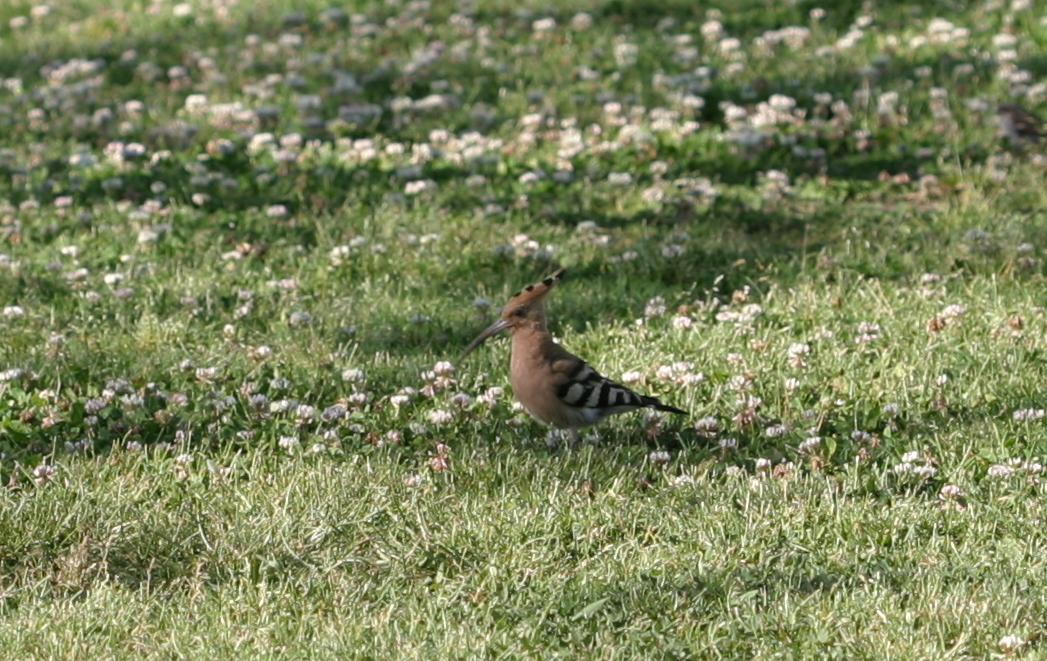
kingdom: Animalia
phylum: Chordata
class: Aves
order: Bucerotiformes
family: Upupidae
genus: Upupa
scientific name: Upupa epops
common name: Eurasian hoopoe
